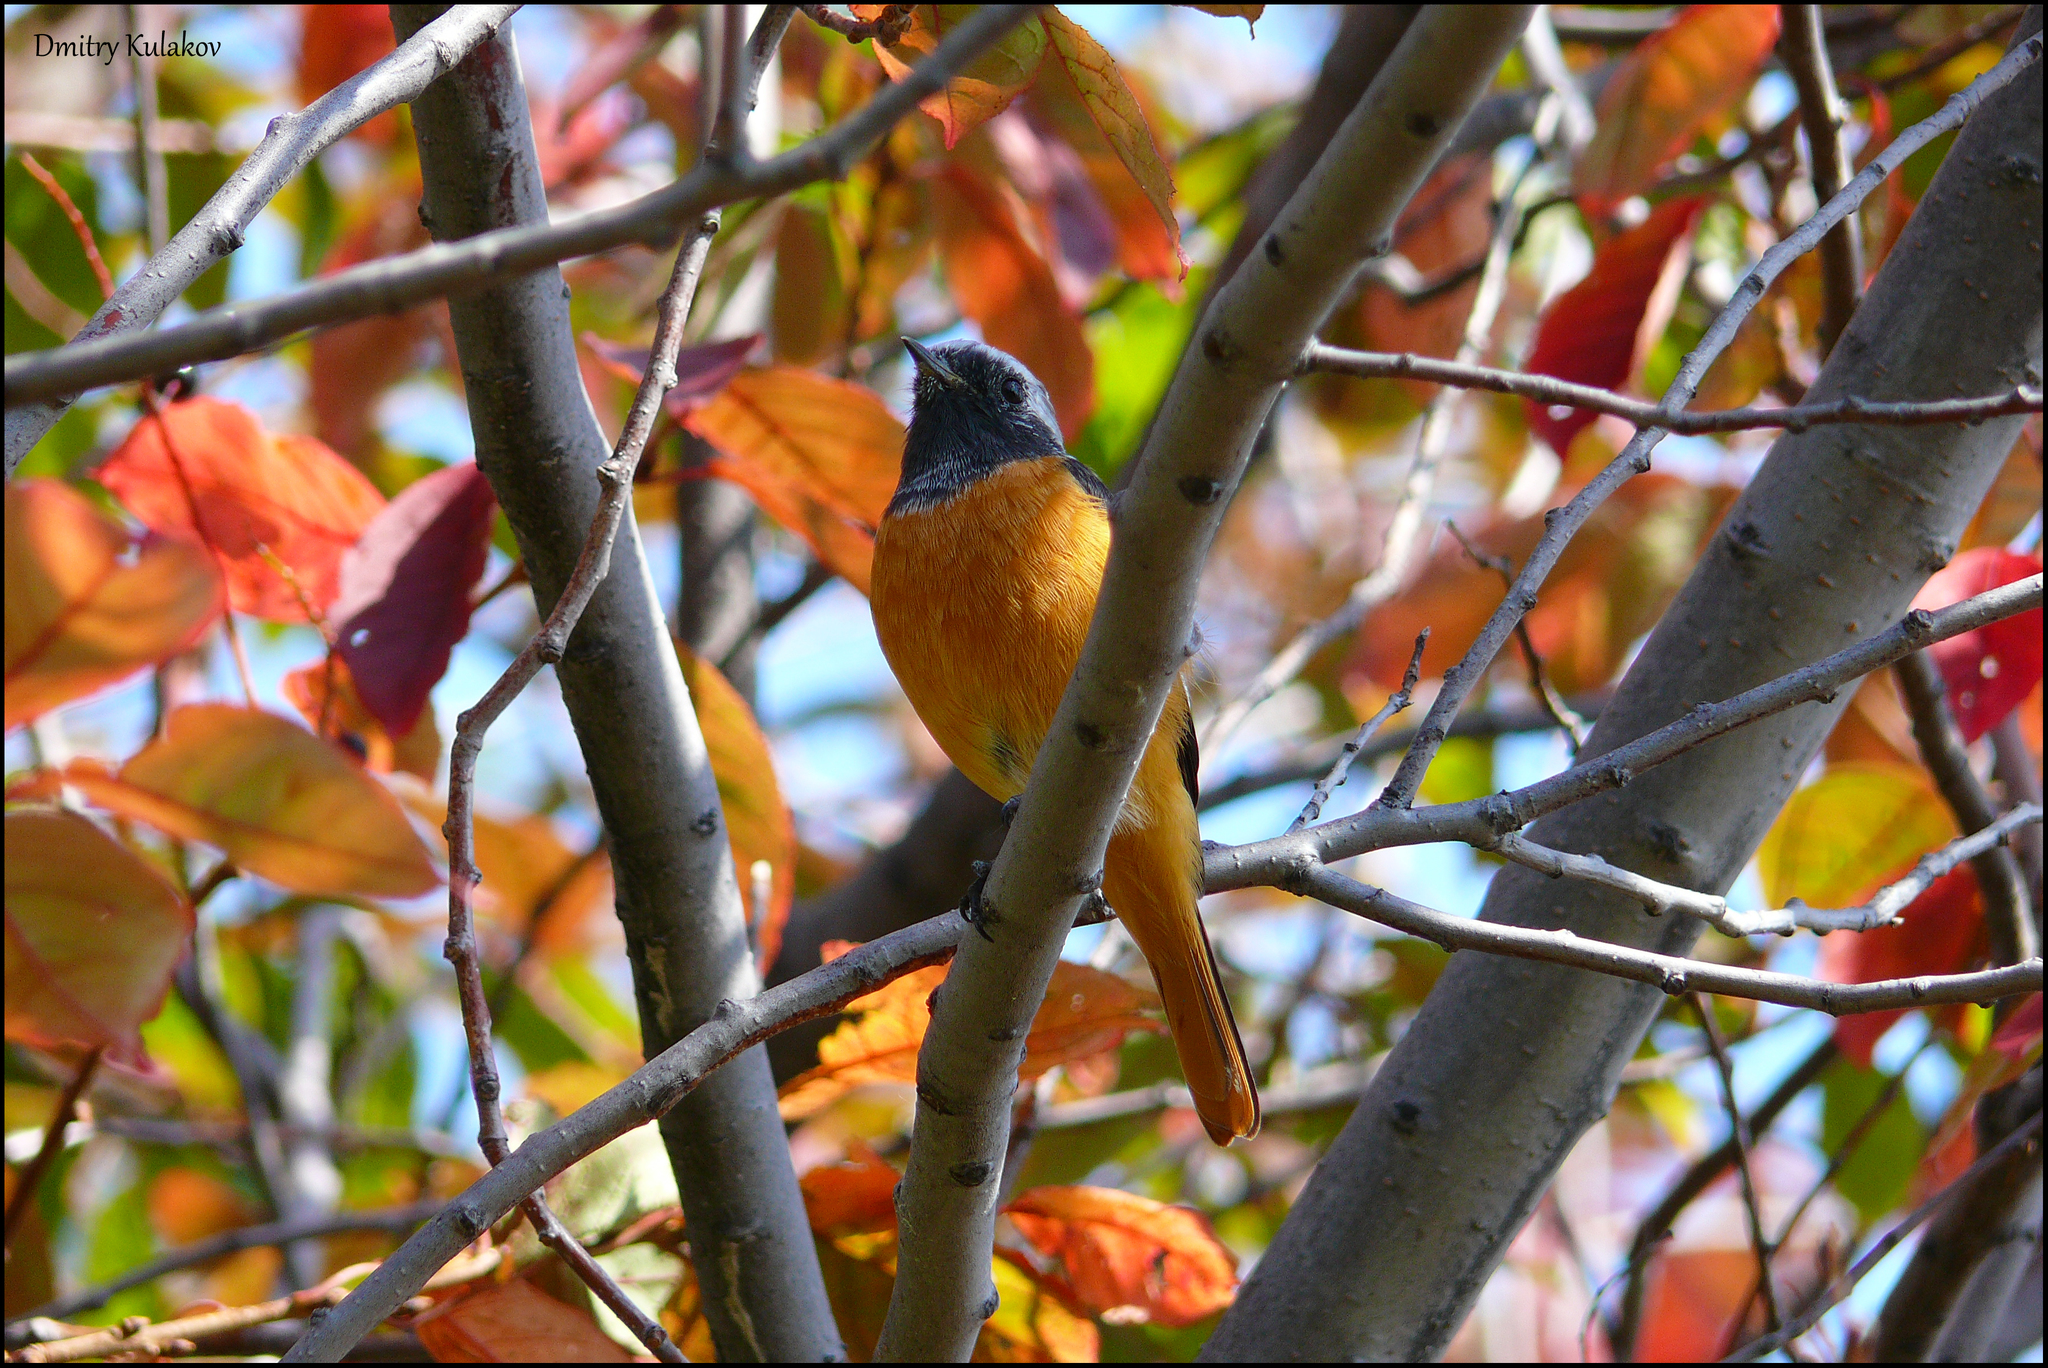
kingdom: Animalia
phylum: Chordata
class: Aves
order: Passeriformes
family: Muscicapidae
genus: Phoenicurus
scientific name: Phoenicurus auroreus
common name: Daurian redstart
